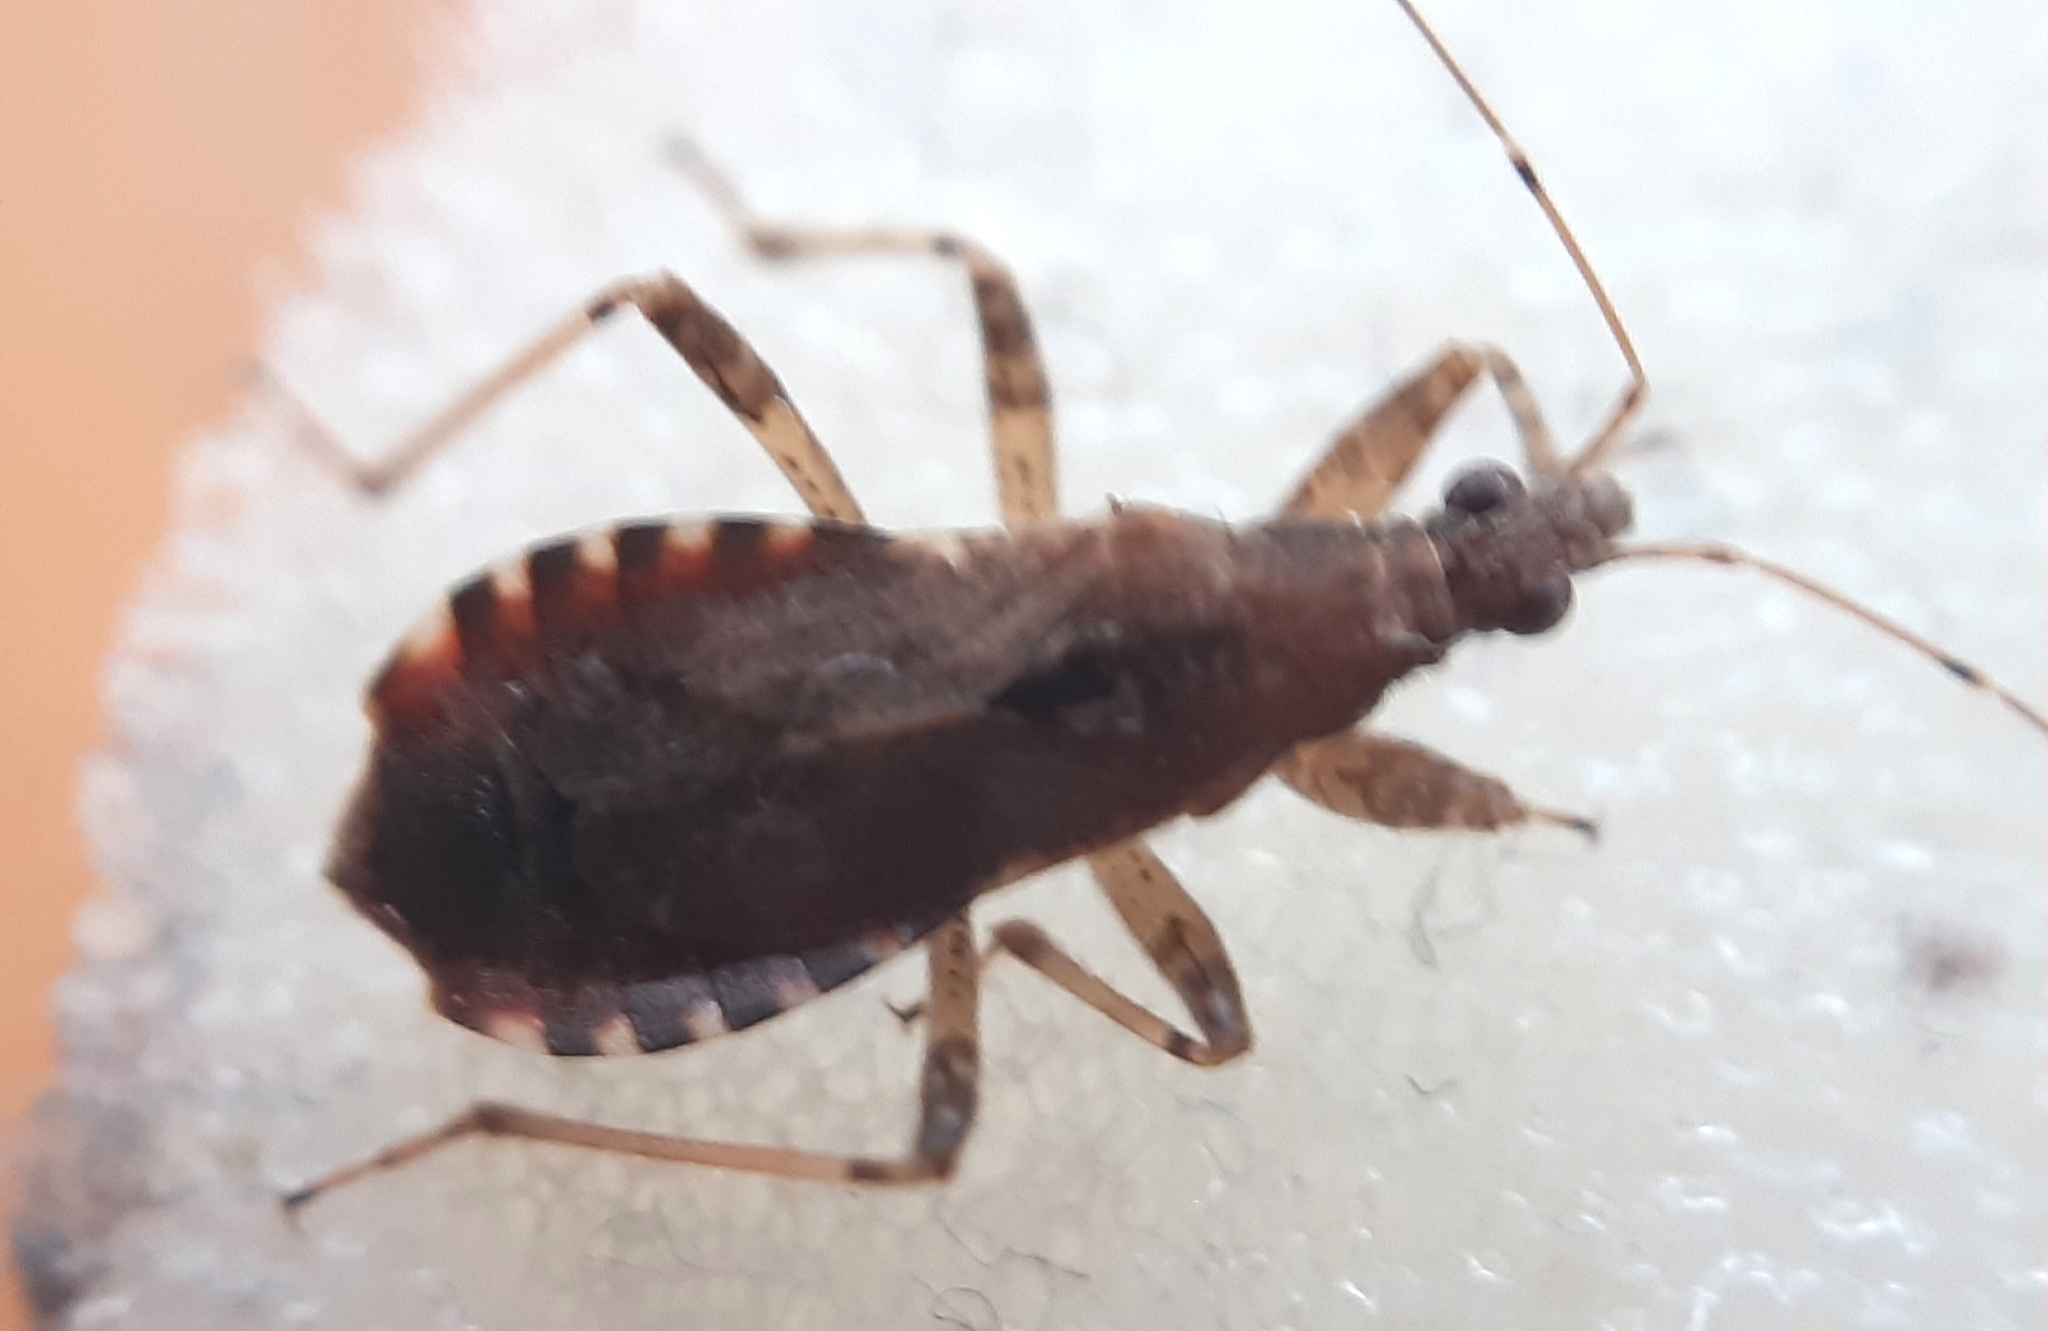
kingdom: Animalia
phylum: Arthropoda
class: Insecta
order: Hemiptera
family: Nabidae
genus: Himacerus
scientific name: Himacerus mirmicoides
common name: Ant damsel bug
